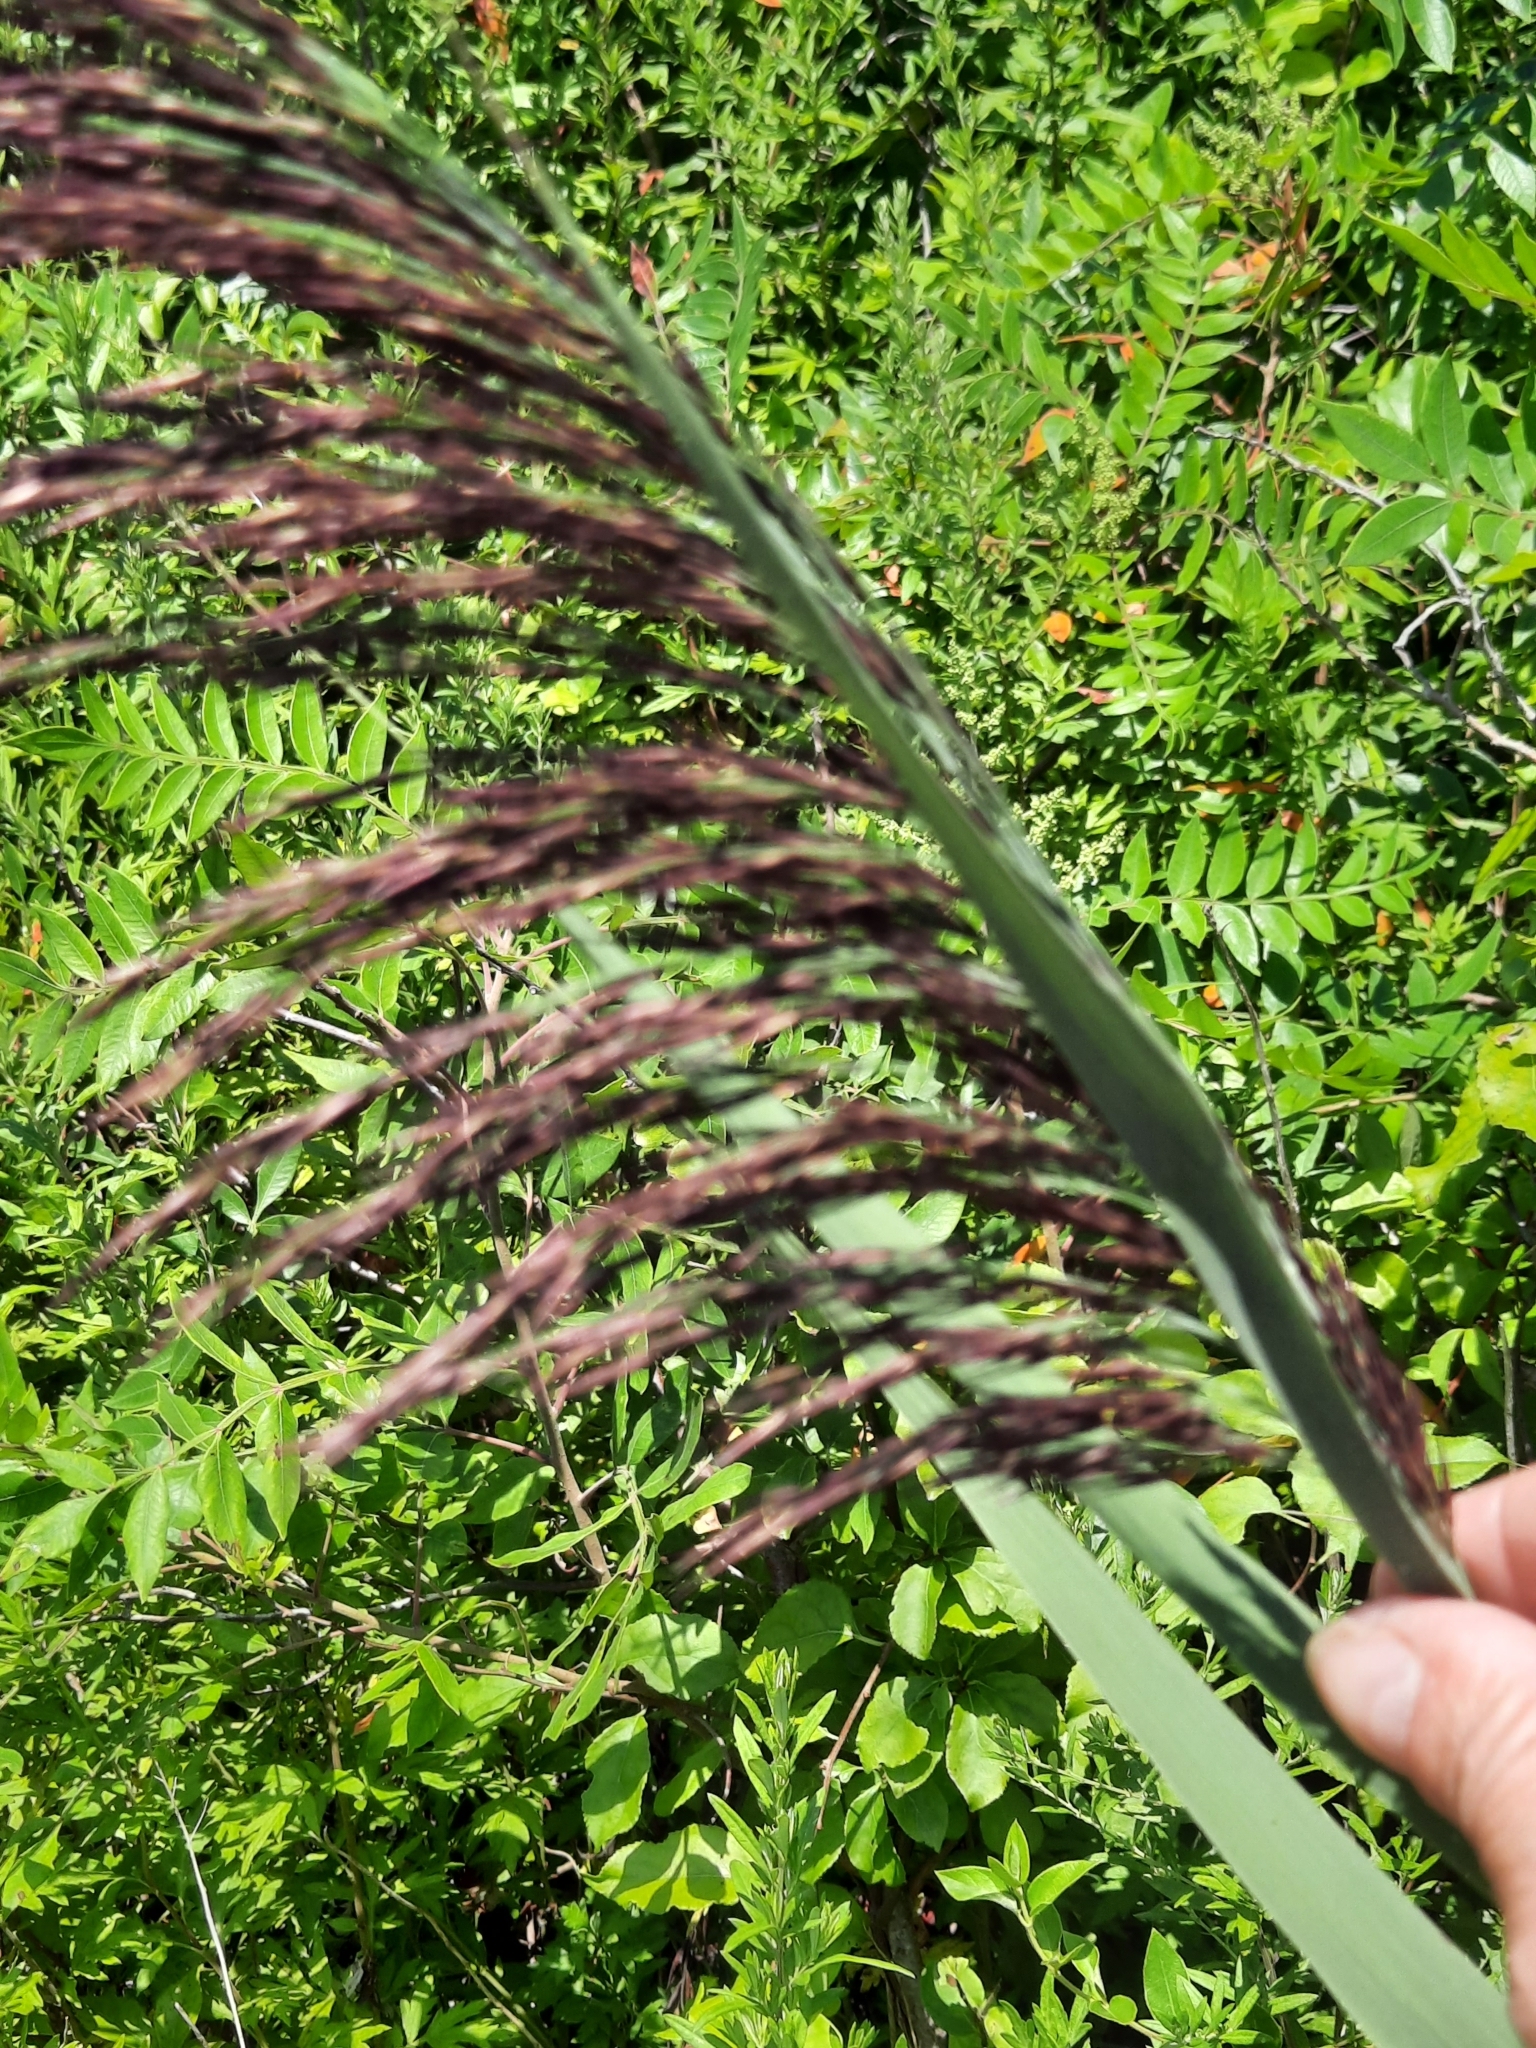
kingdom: Plantae
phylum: Tracheophyta
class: Liliopsida
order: Poales
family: Poaceae
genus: Phragmites
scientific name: Phragmites australis
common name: Common reed
